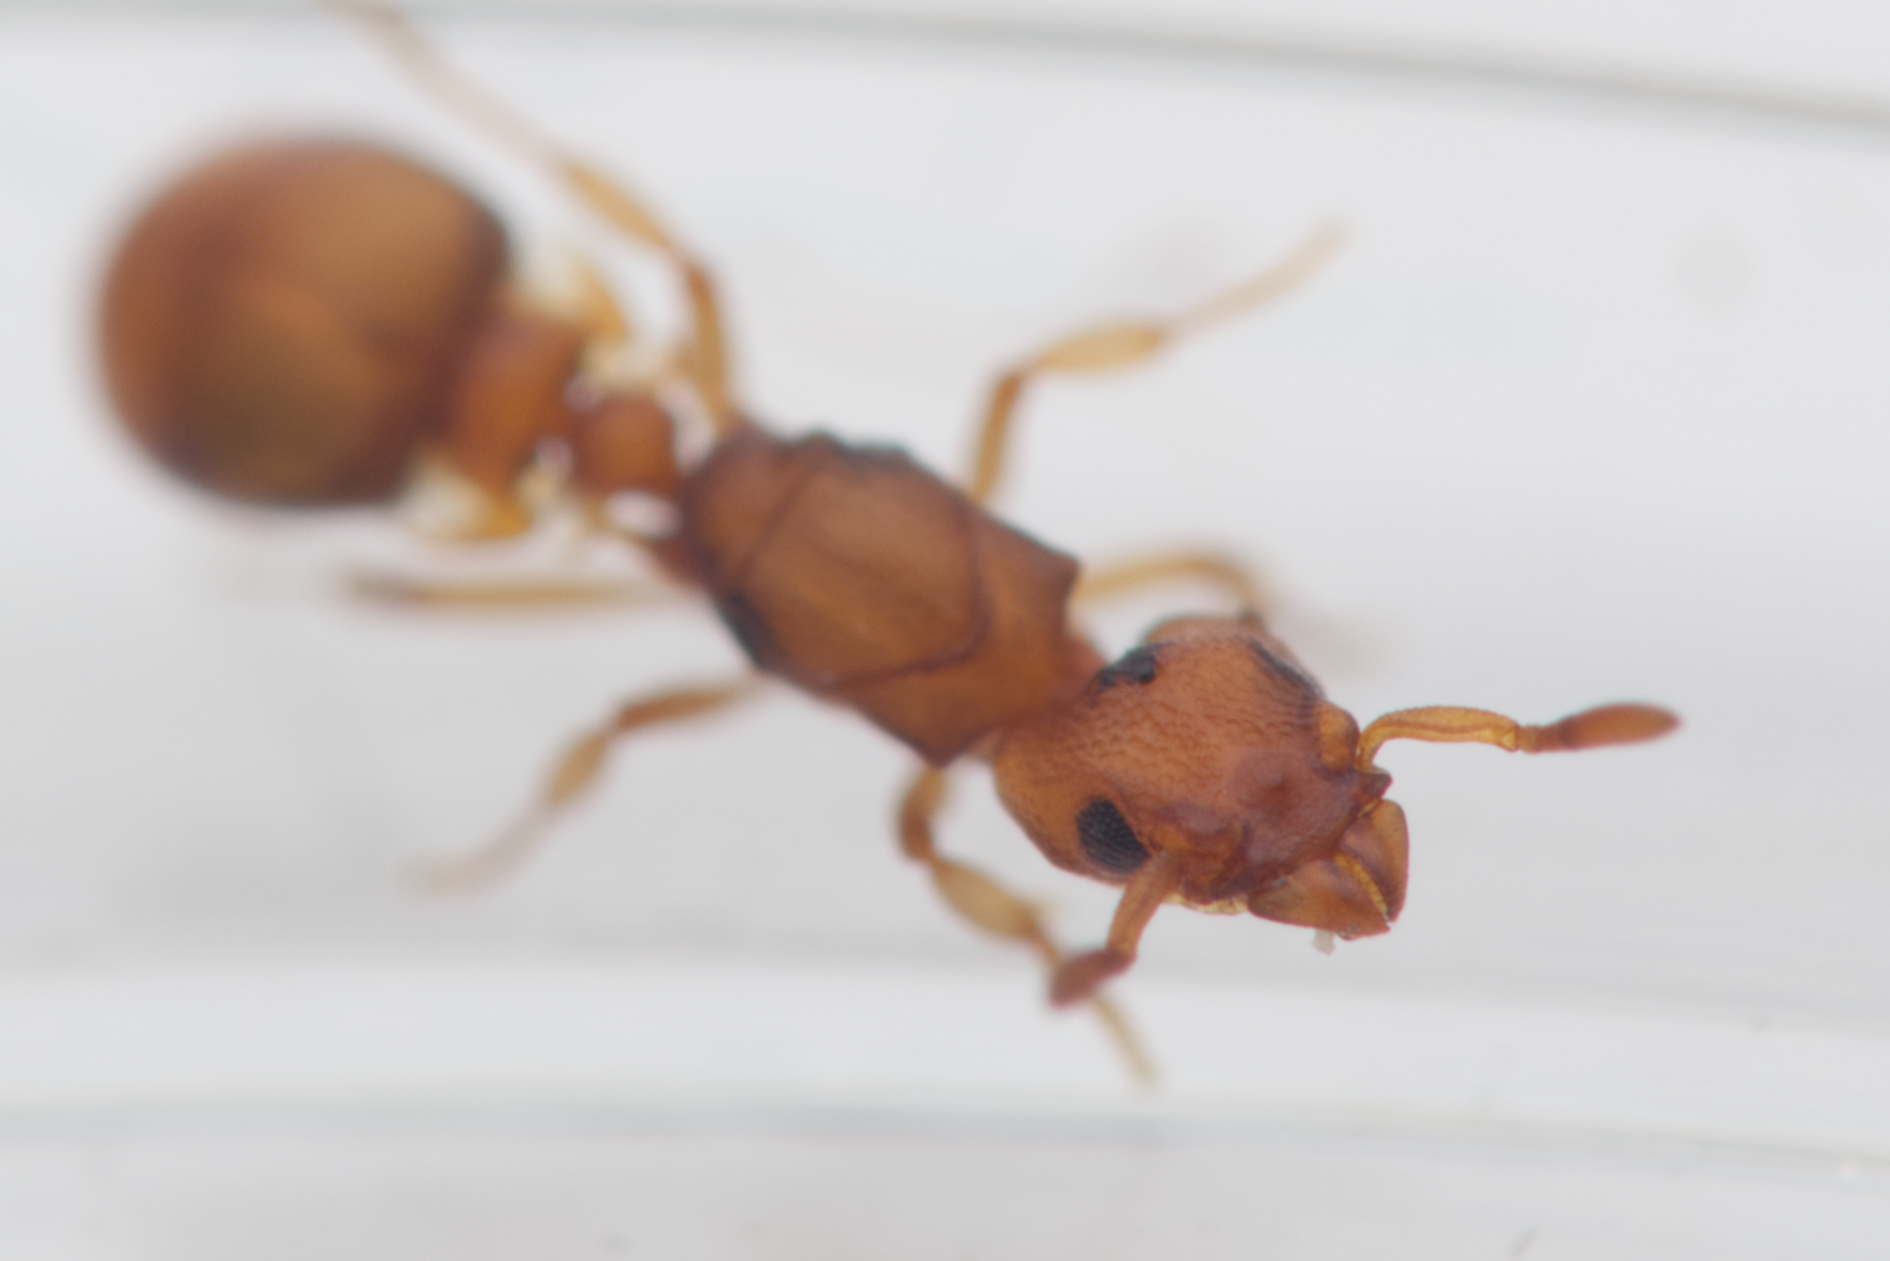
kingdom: Animalia
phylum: Arthropoda
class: Insecta
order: Hymenoptera
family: Formicidae
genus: Colobostruma
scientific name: Colobostruma
